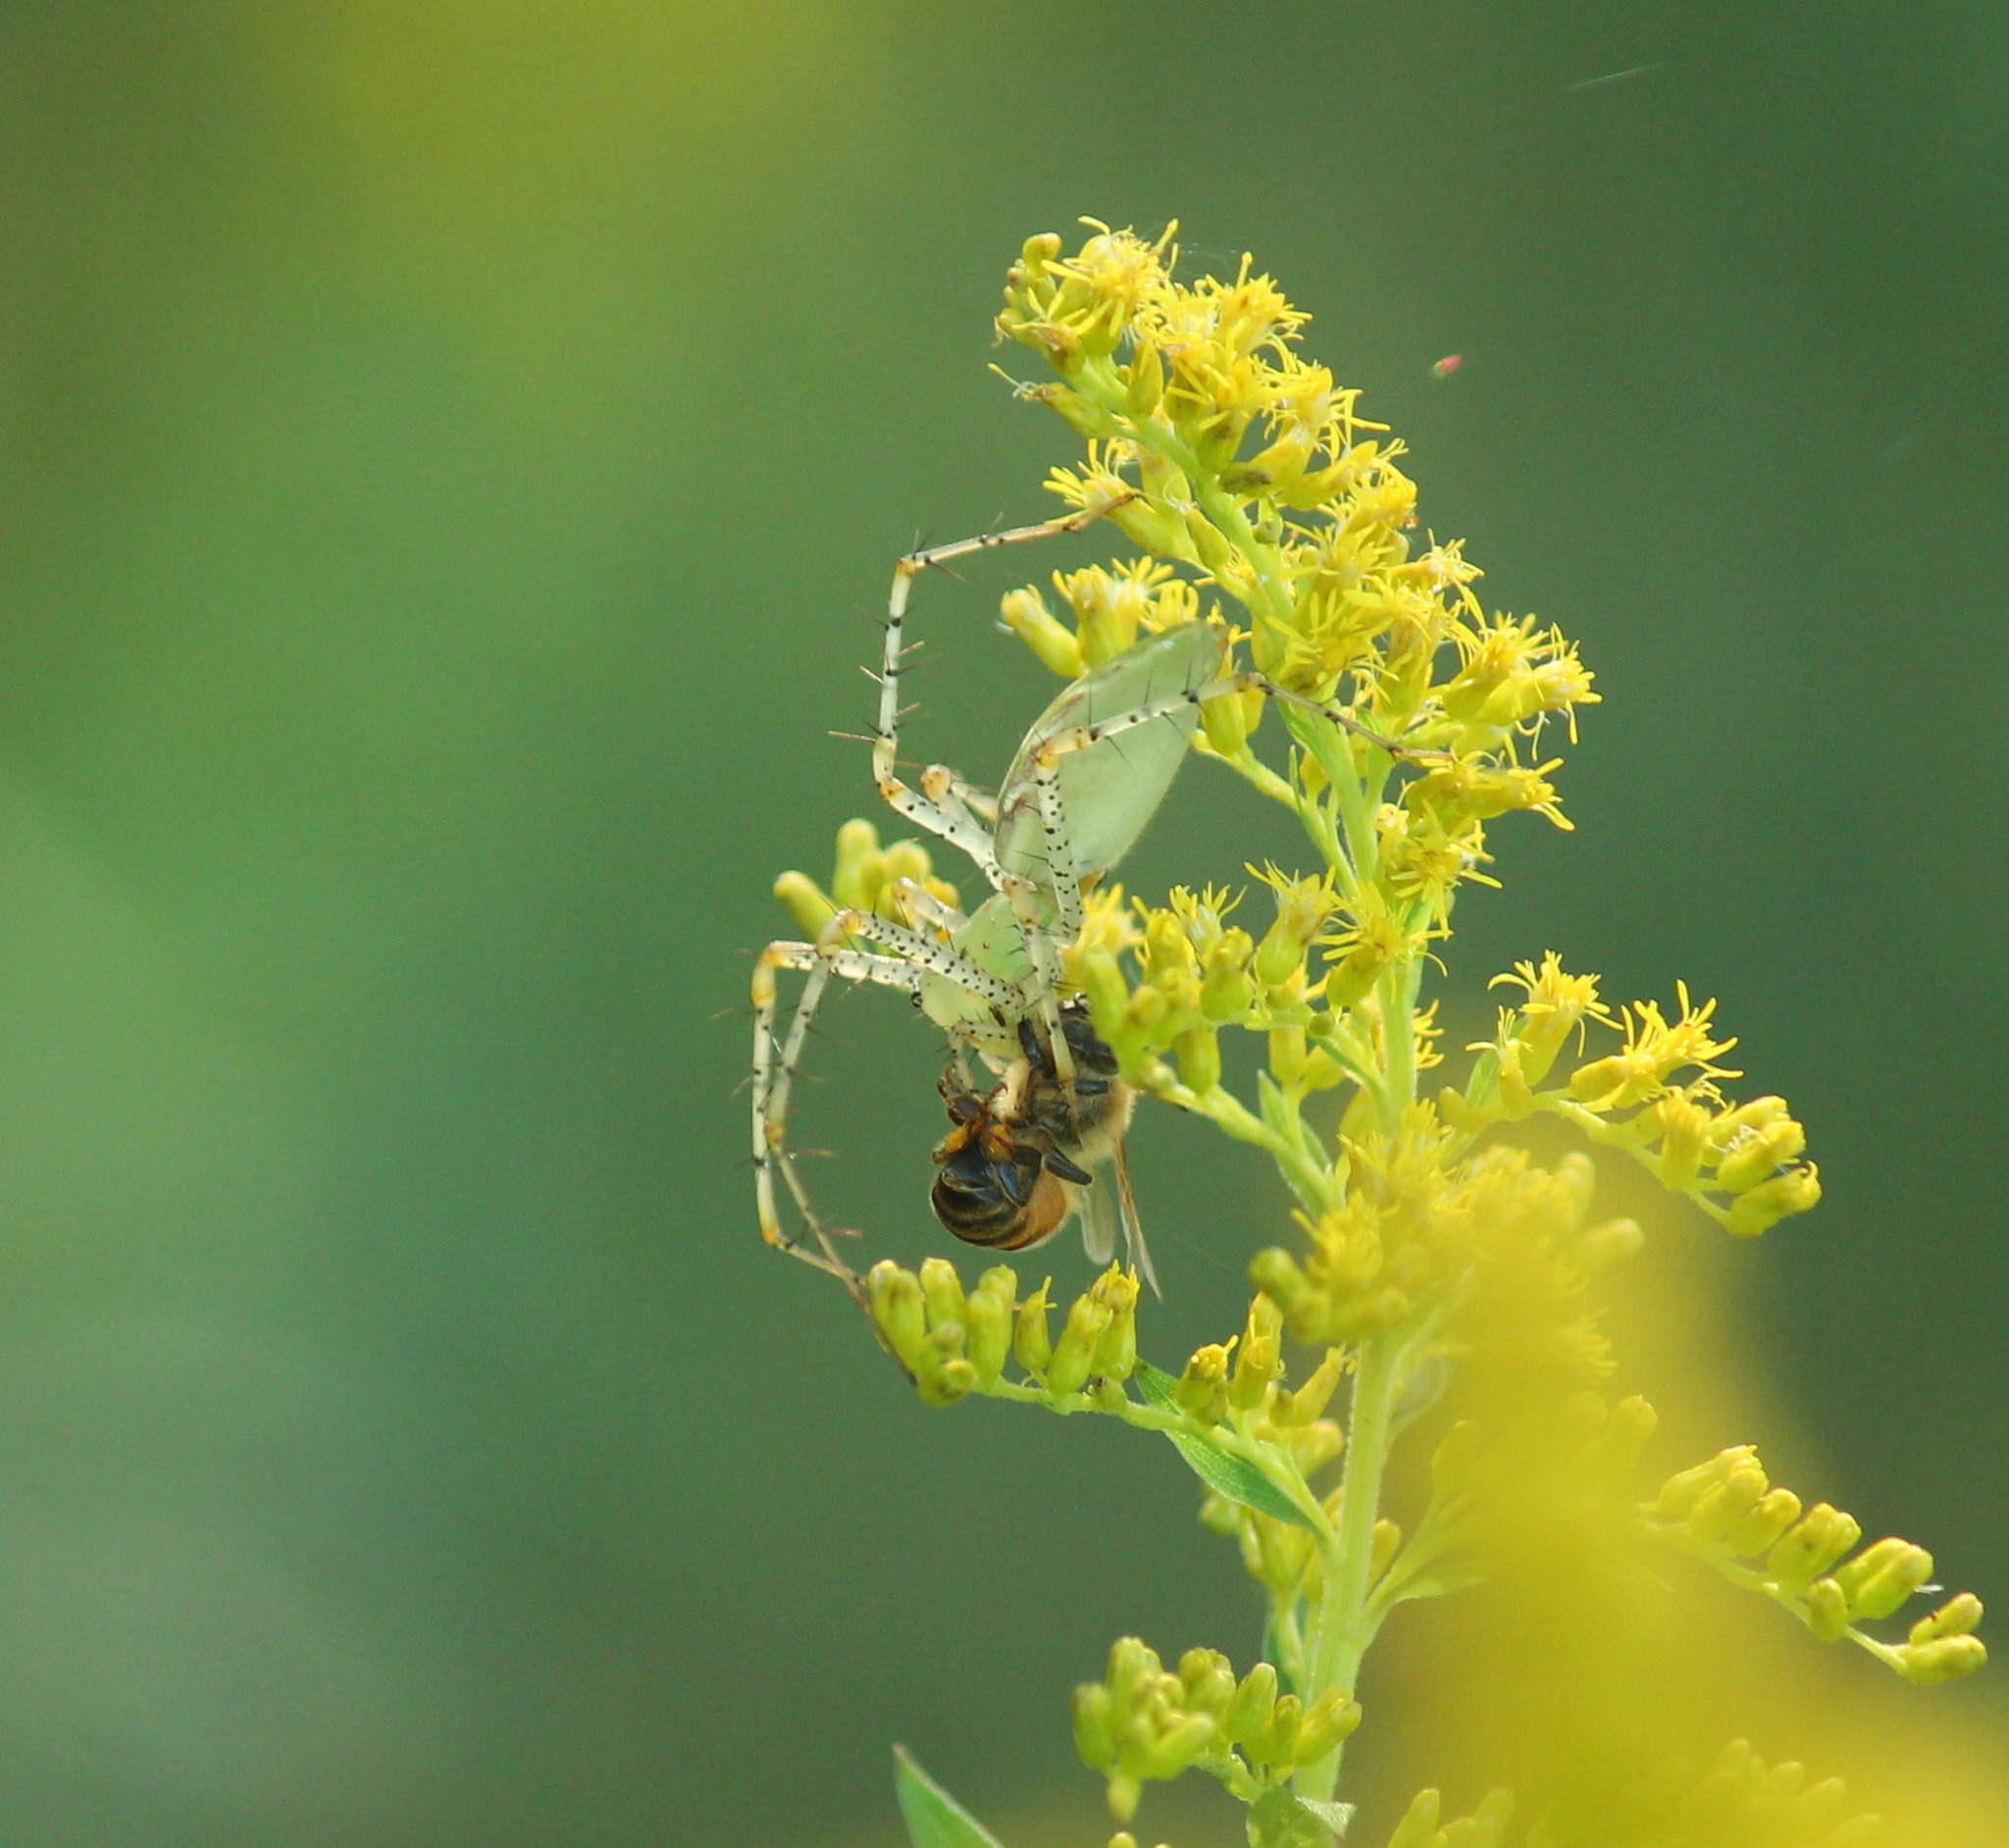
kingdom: Animalia
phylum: Arthropoda
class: Arachnida
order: Araneae
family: Oxyopidae
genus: Peucetia
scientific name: Peucetia viridans
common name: Lynx spiders
